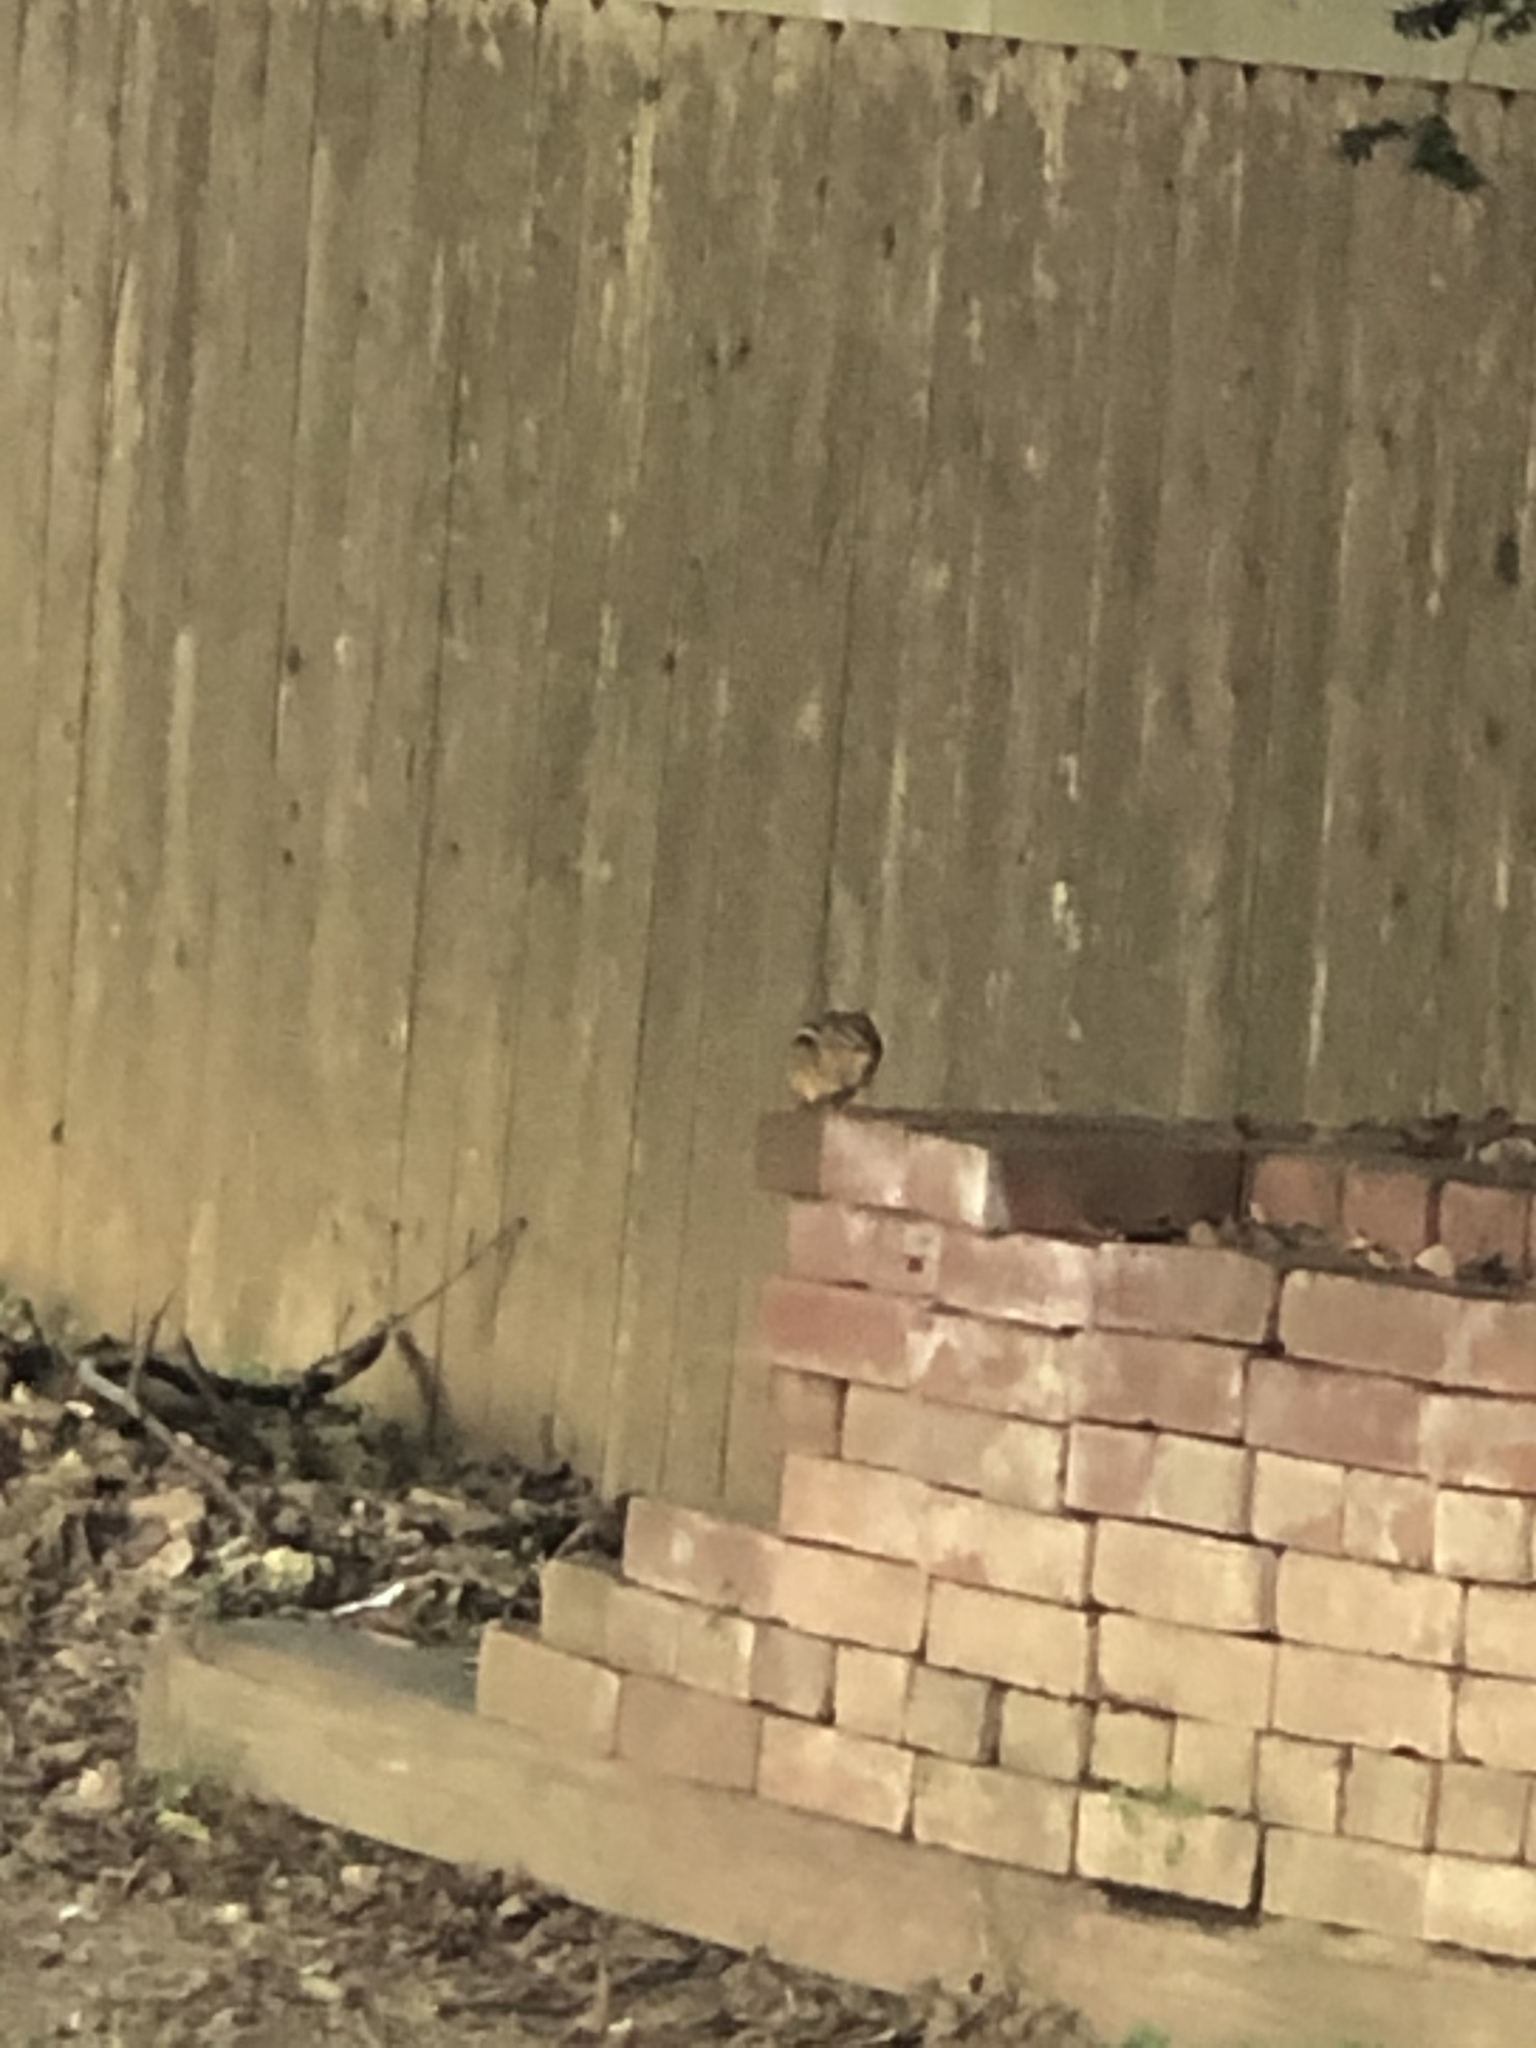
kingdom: Animalia
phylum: Chordata
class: Mammalia
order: Rodentia
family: Sciuridae
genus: Tamias
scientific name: Tamias striatus
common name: Eastern chipmunk
